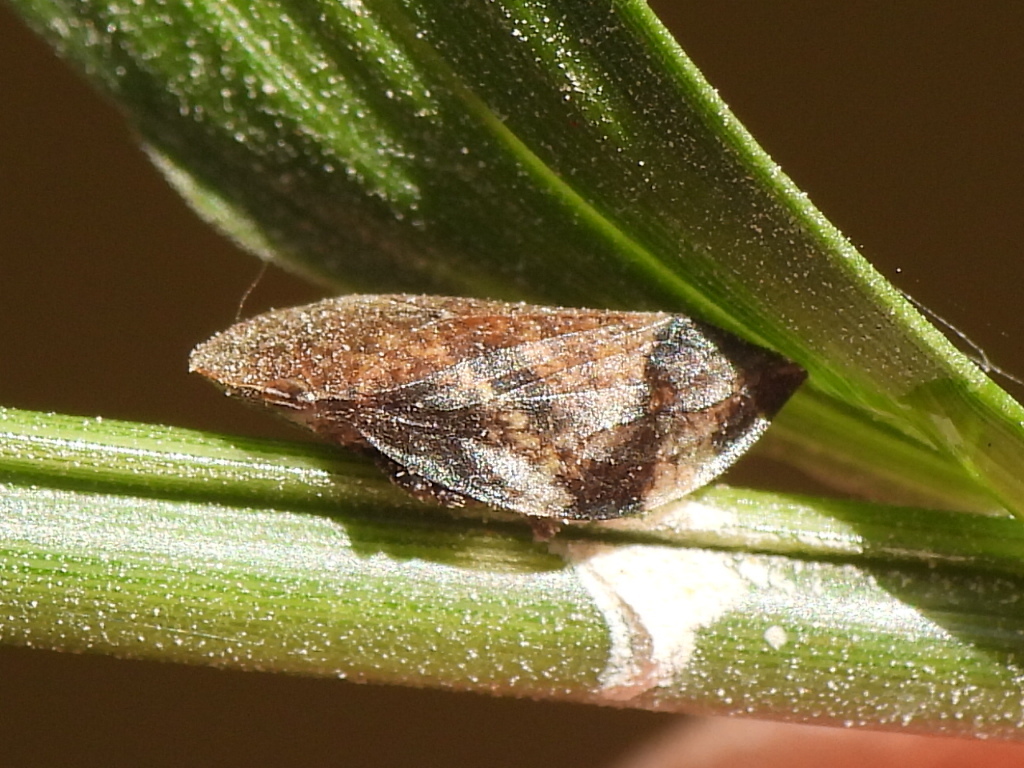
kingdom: Animalia
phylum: Arthropoda
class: Insecta
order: Hemiptera
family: Aphrophoridae
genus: Lepyronia
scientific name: Lepyronia quadrangularis
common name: Diamond-backed spittlebug
